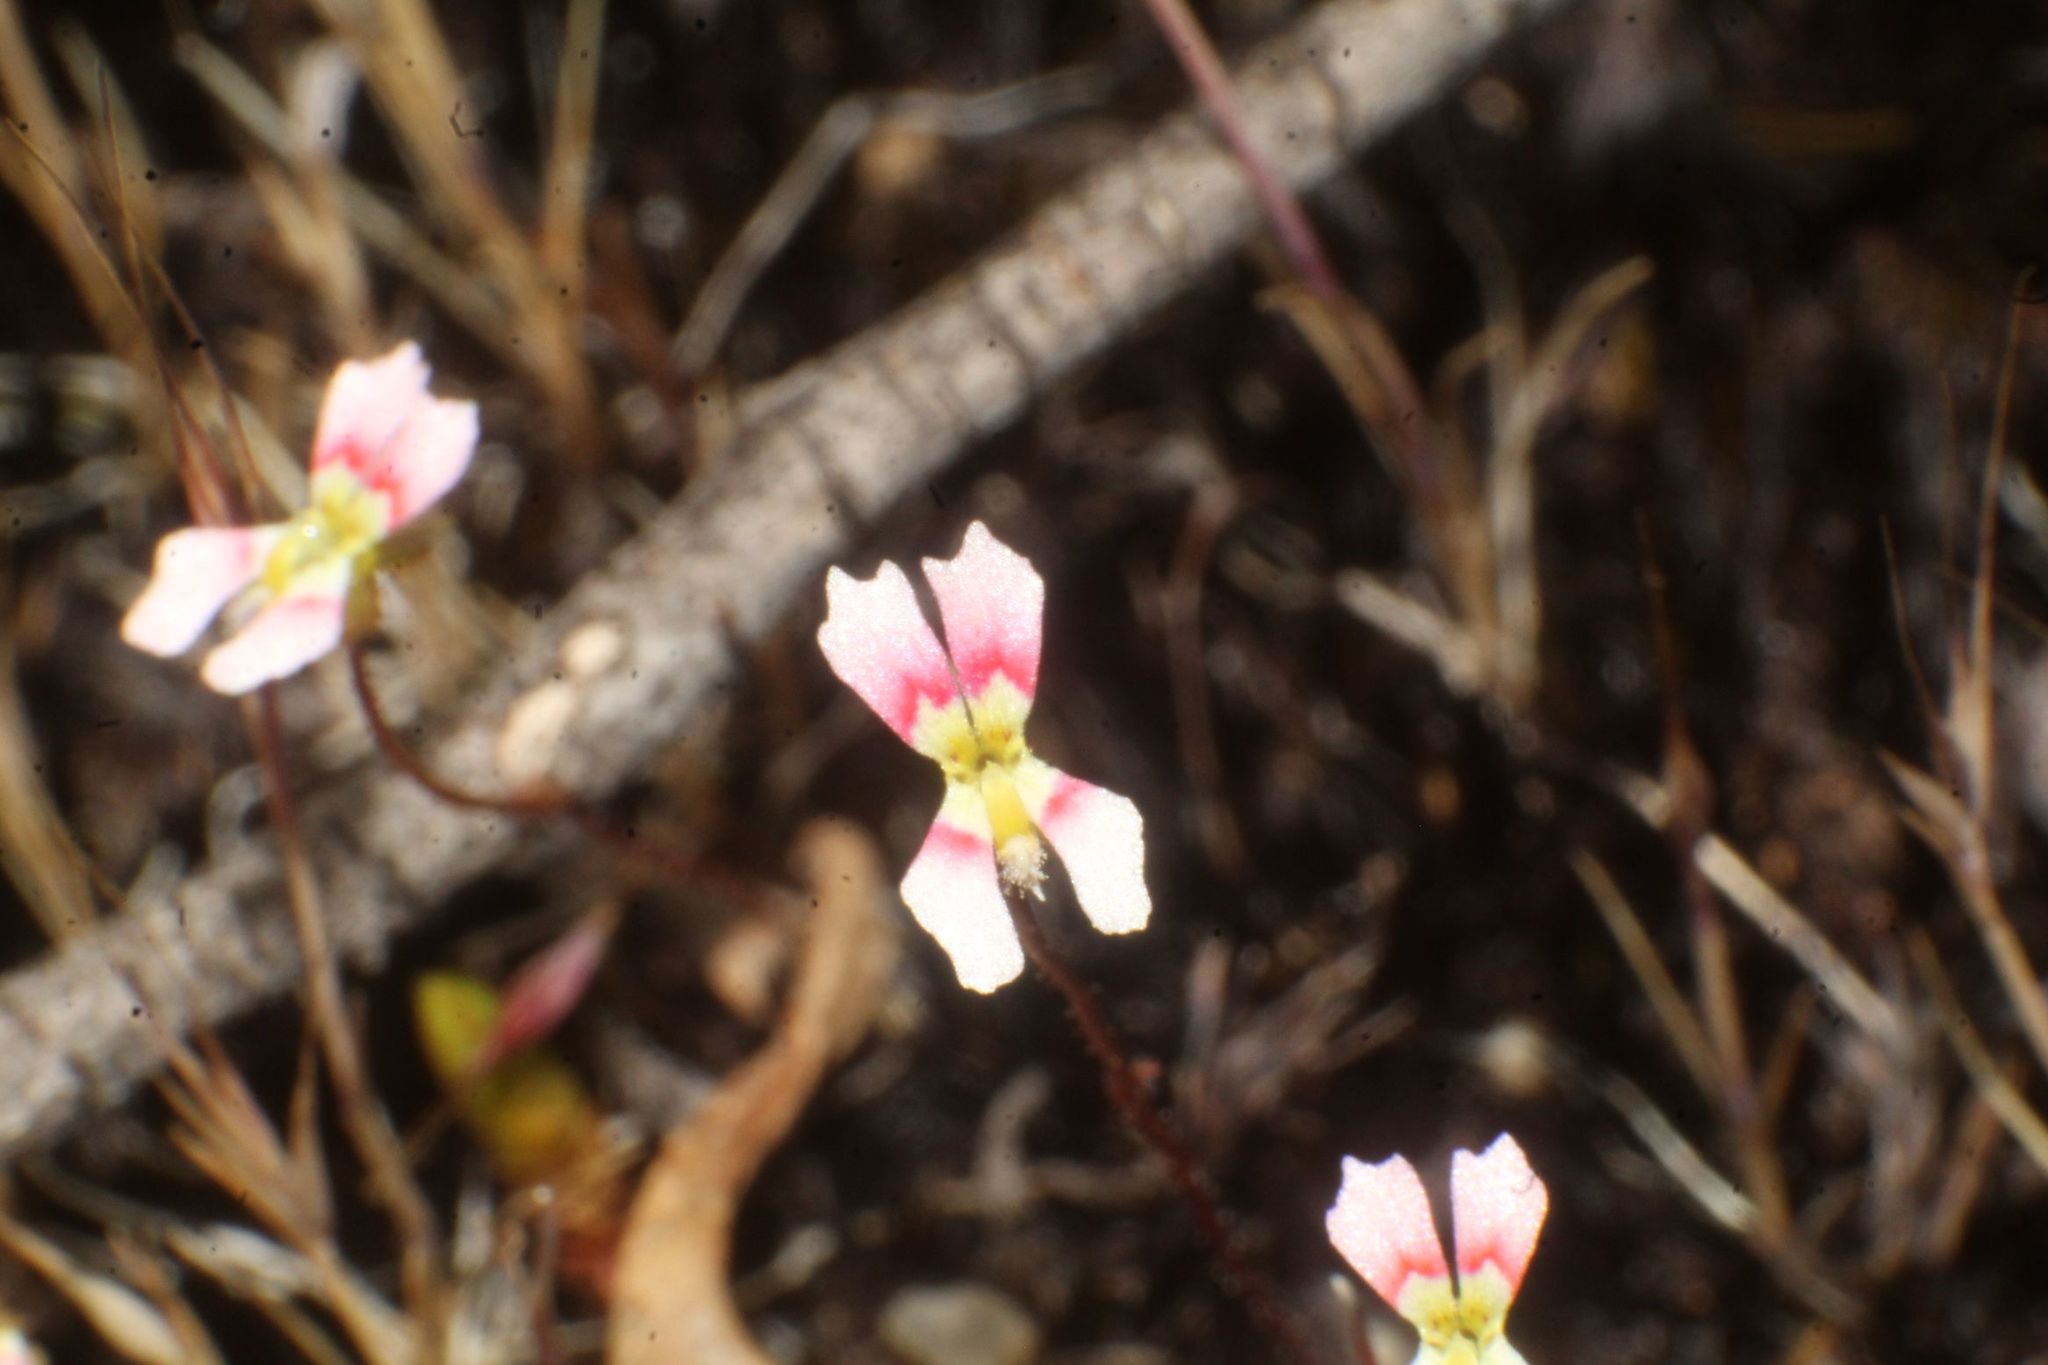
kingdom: Plantae
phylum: Tracheophyta
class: Magnoliopsida
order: Asterales
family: Stylidiaceae
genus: Stylidium
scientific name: Stylidium calcaratum
